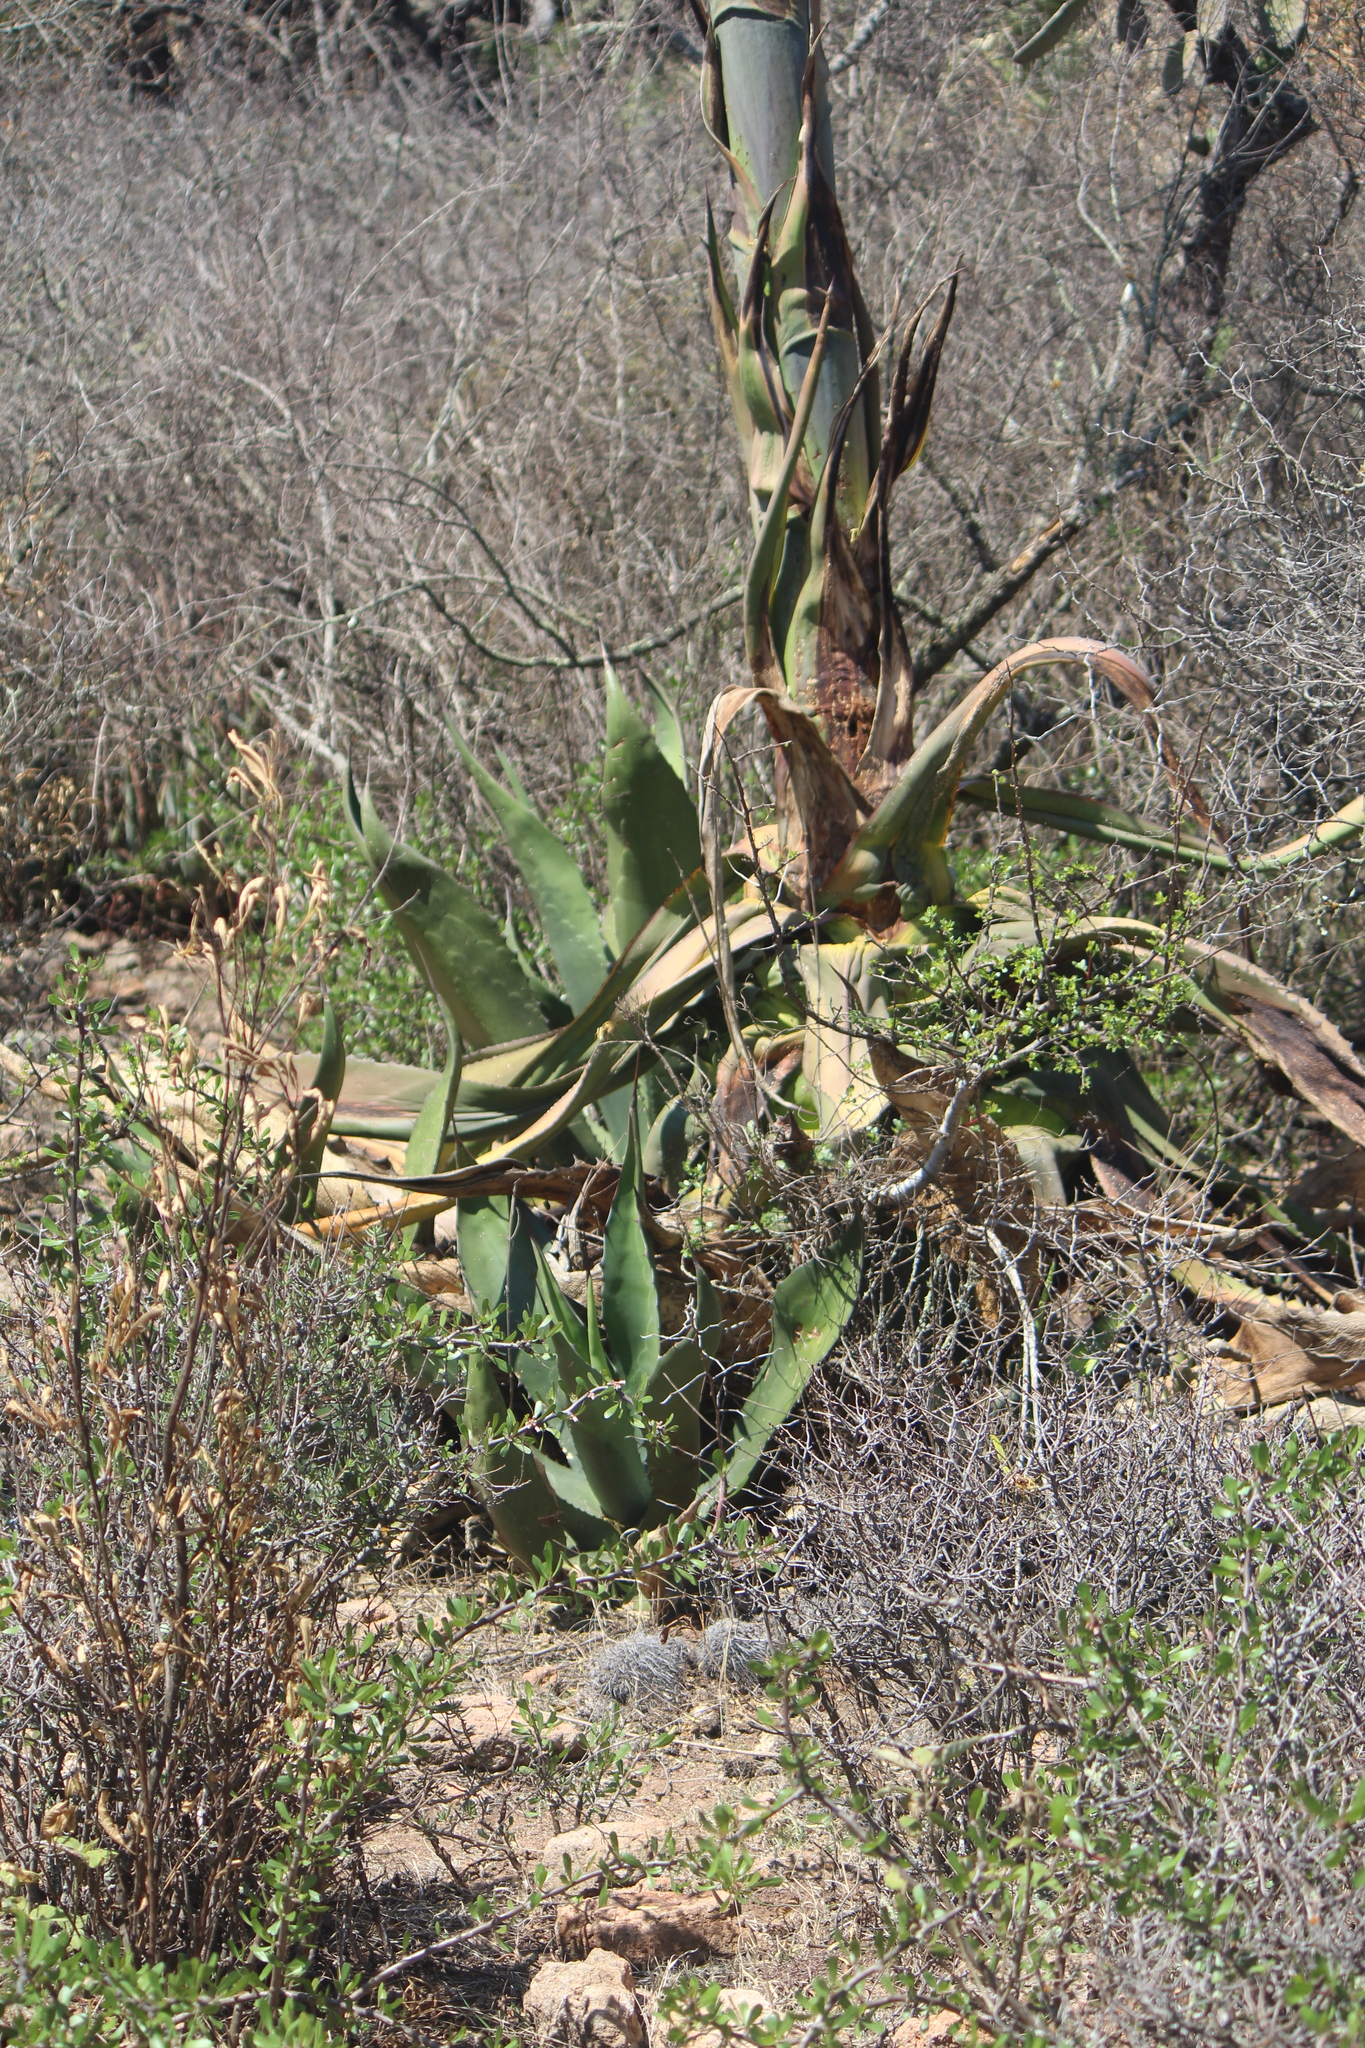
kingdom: Plantae
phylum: Tracheophyta
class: Liliopsida
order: Asparagales
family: Asparagaceae
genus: Agave
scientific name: Agave salmiana
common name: Pulque agave
